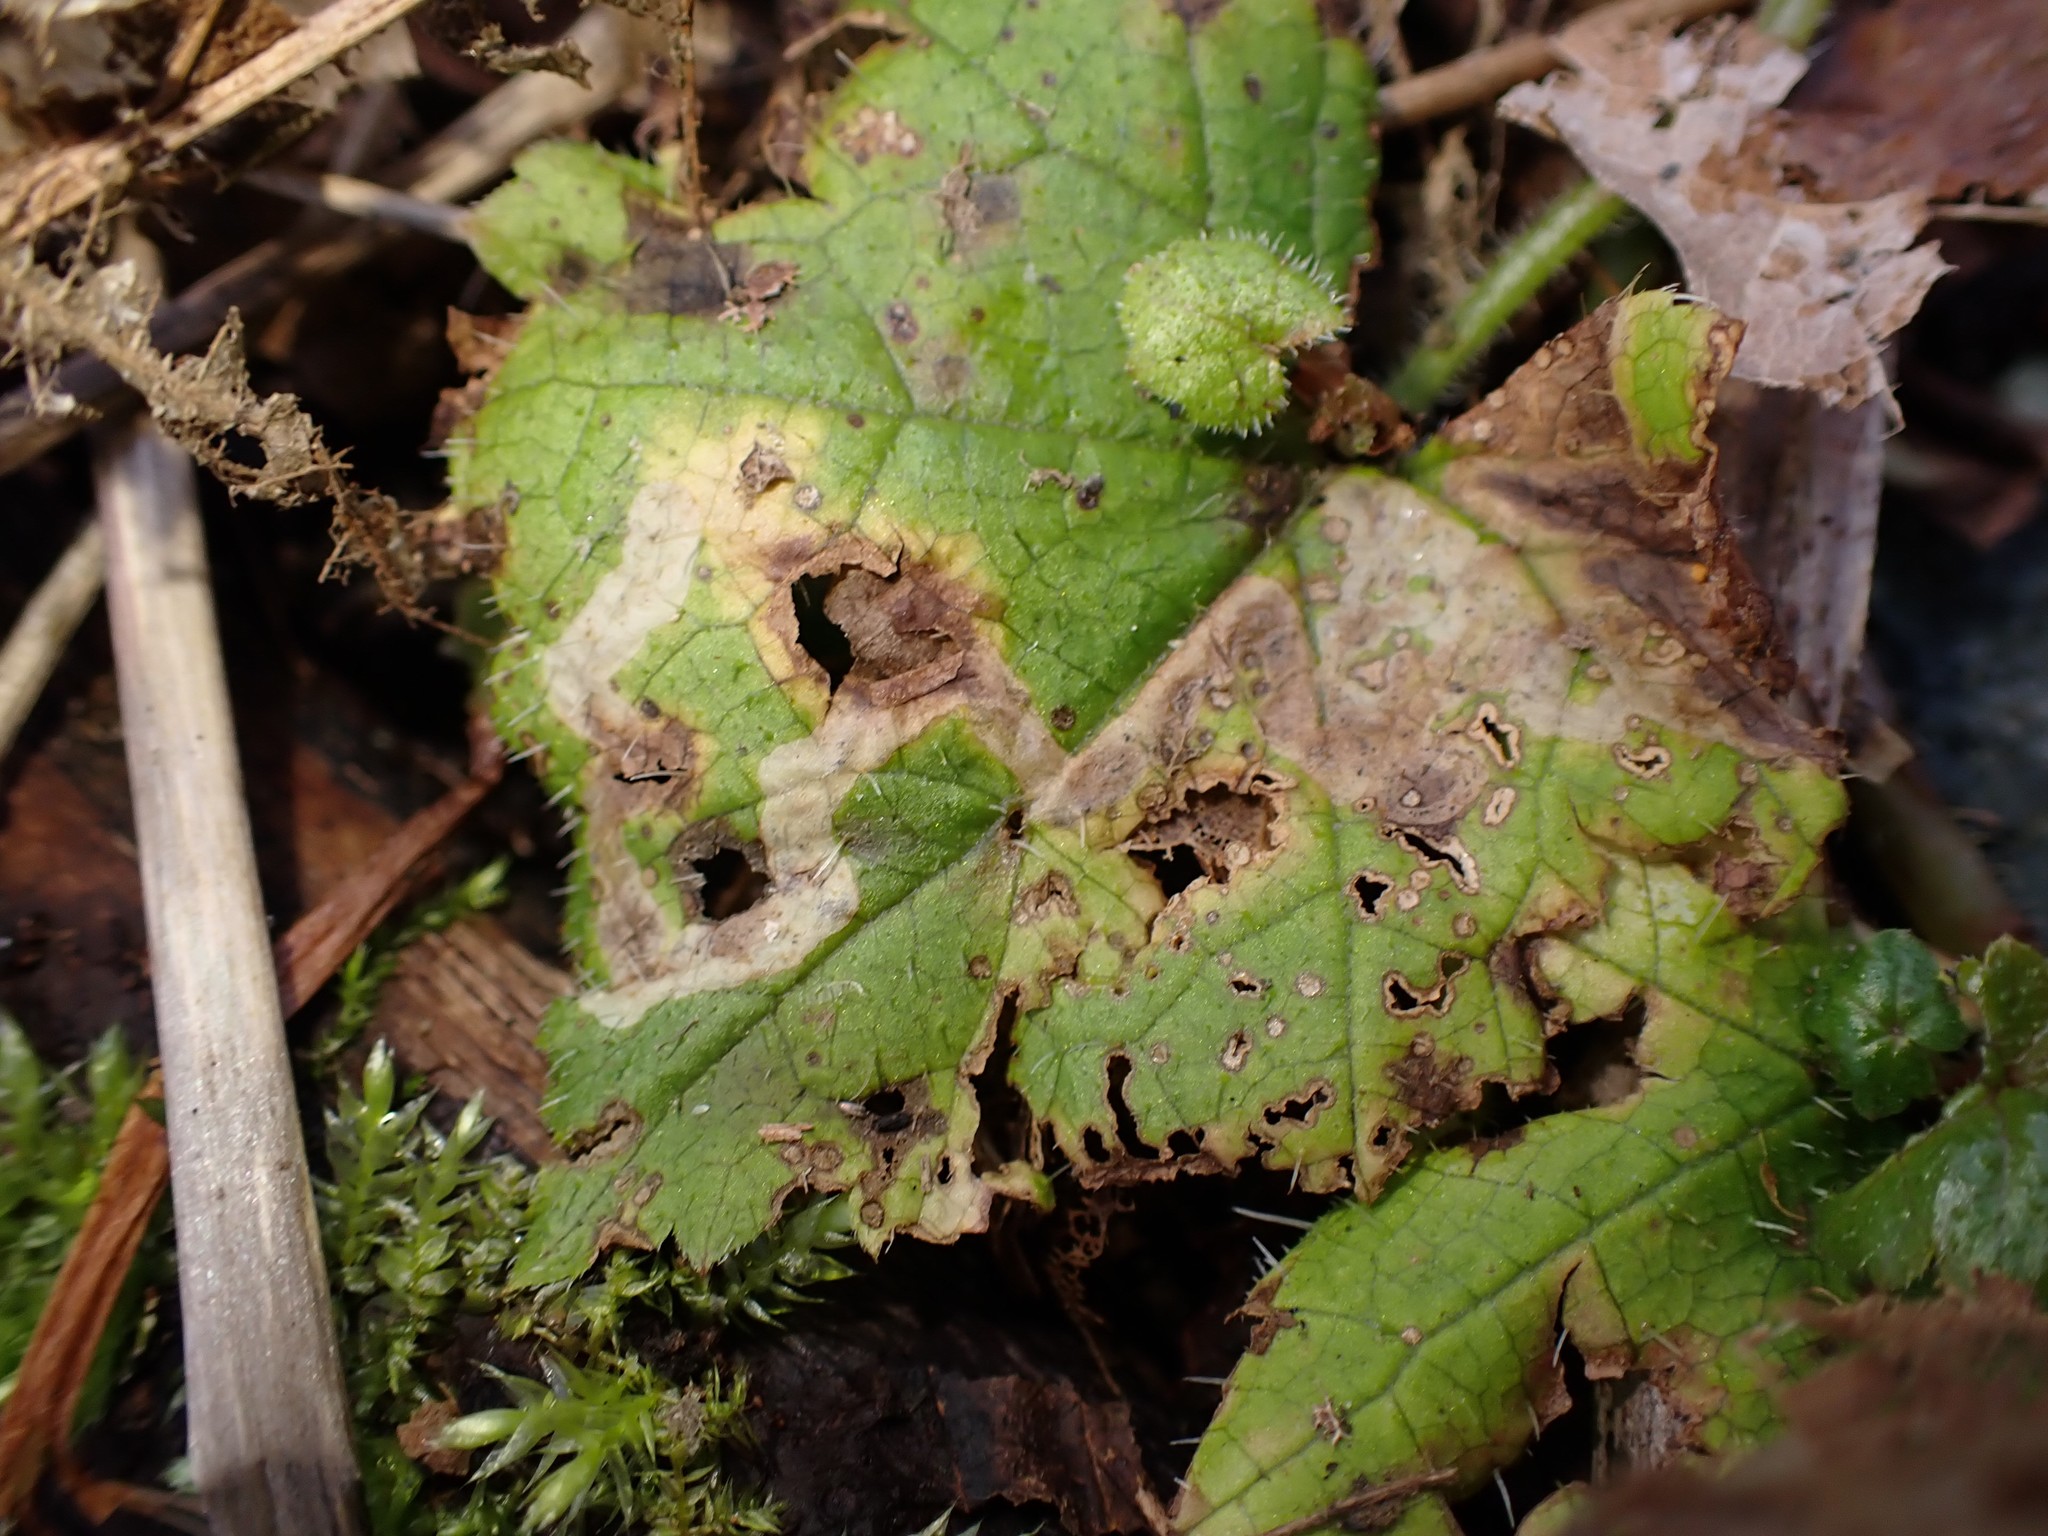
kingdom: Animalia
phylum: Arthropoda
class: Insecta
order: Diptera
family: Agromyzidae
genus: Phytomyza
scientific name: Phytomyza tiarellae
